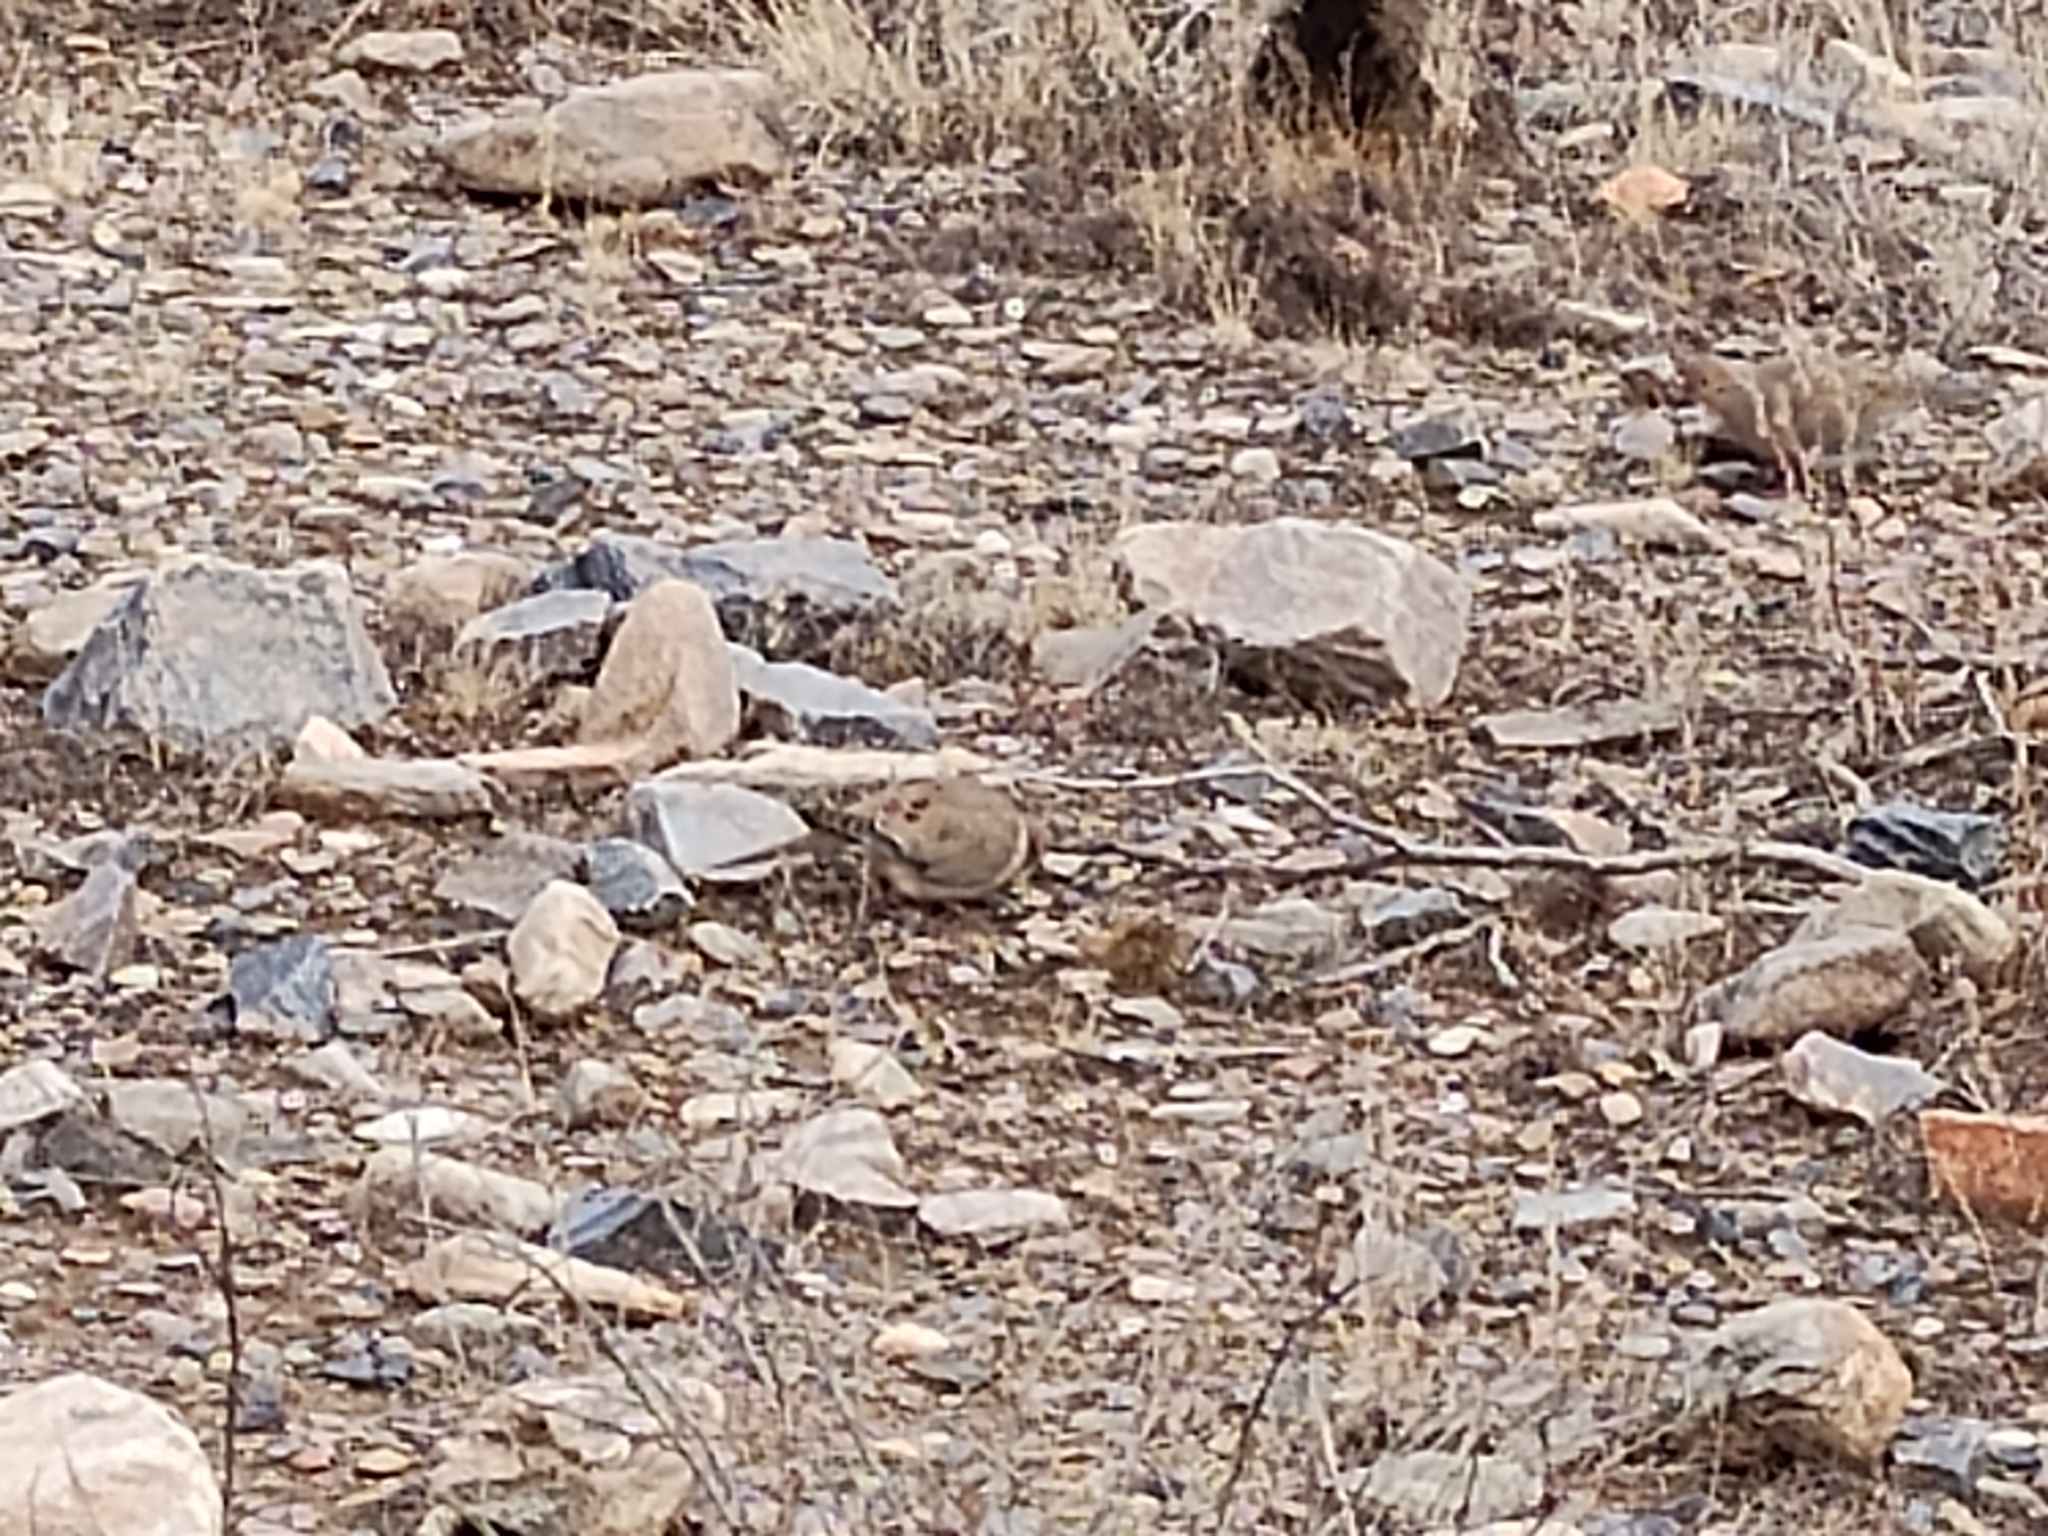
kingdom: Animalia
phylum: Chordata
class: Aves
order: Columbiformes
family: Columbidae
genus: Zenaida
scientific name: Zenaida macroura
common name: Mourning dove
